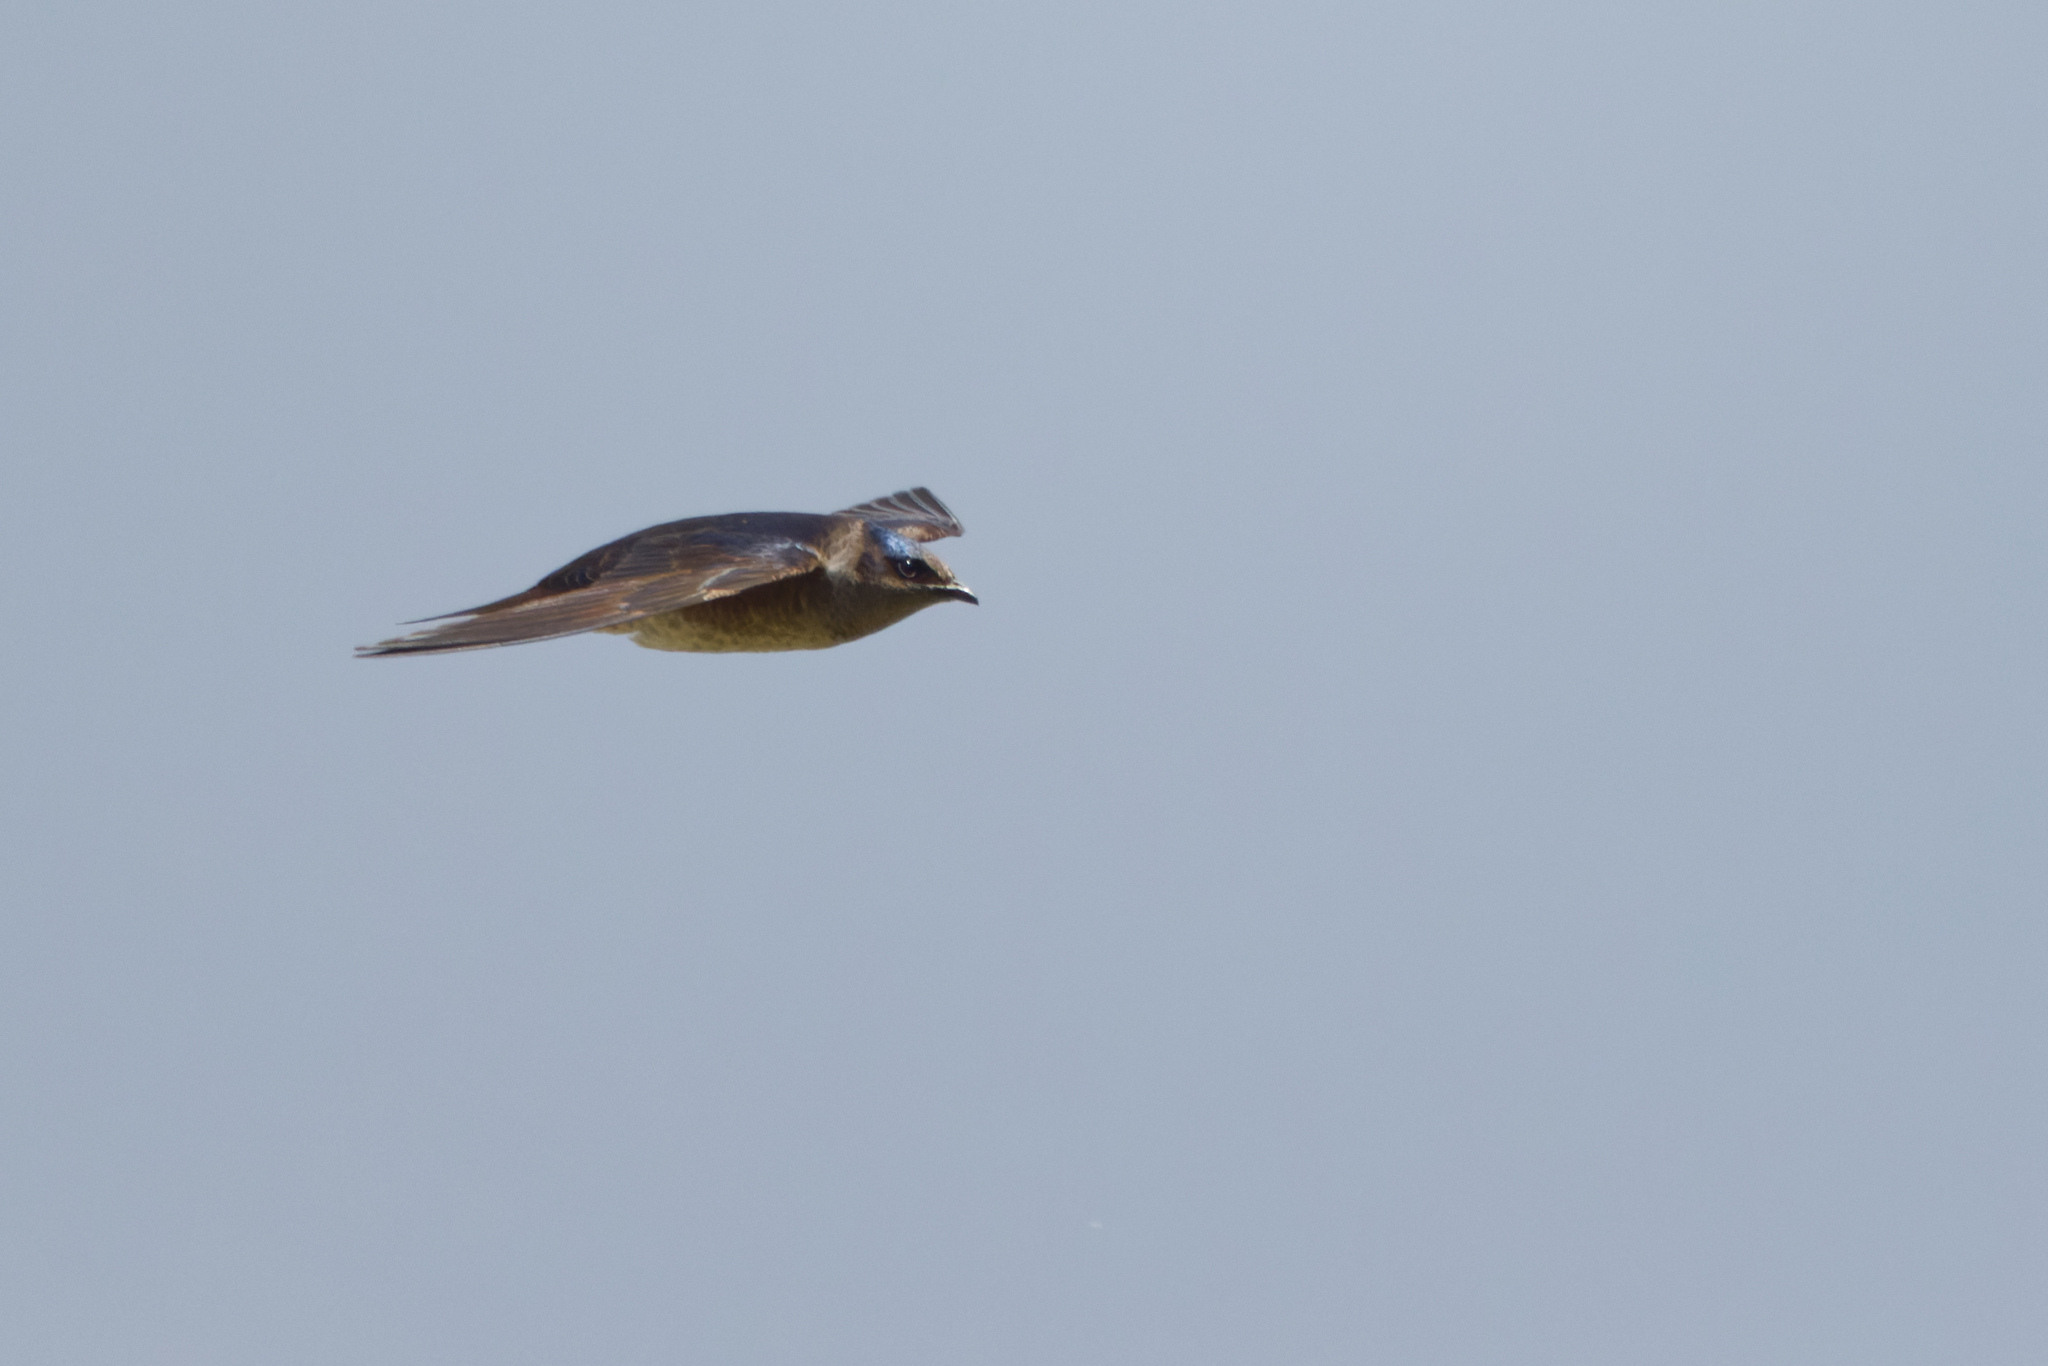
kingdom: Animalia
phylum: Chordata
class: Aves
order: Passeriformes
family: Hirundinidae
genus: Progne
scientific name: Progne subis
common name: Purple martin
